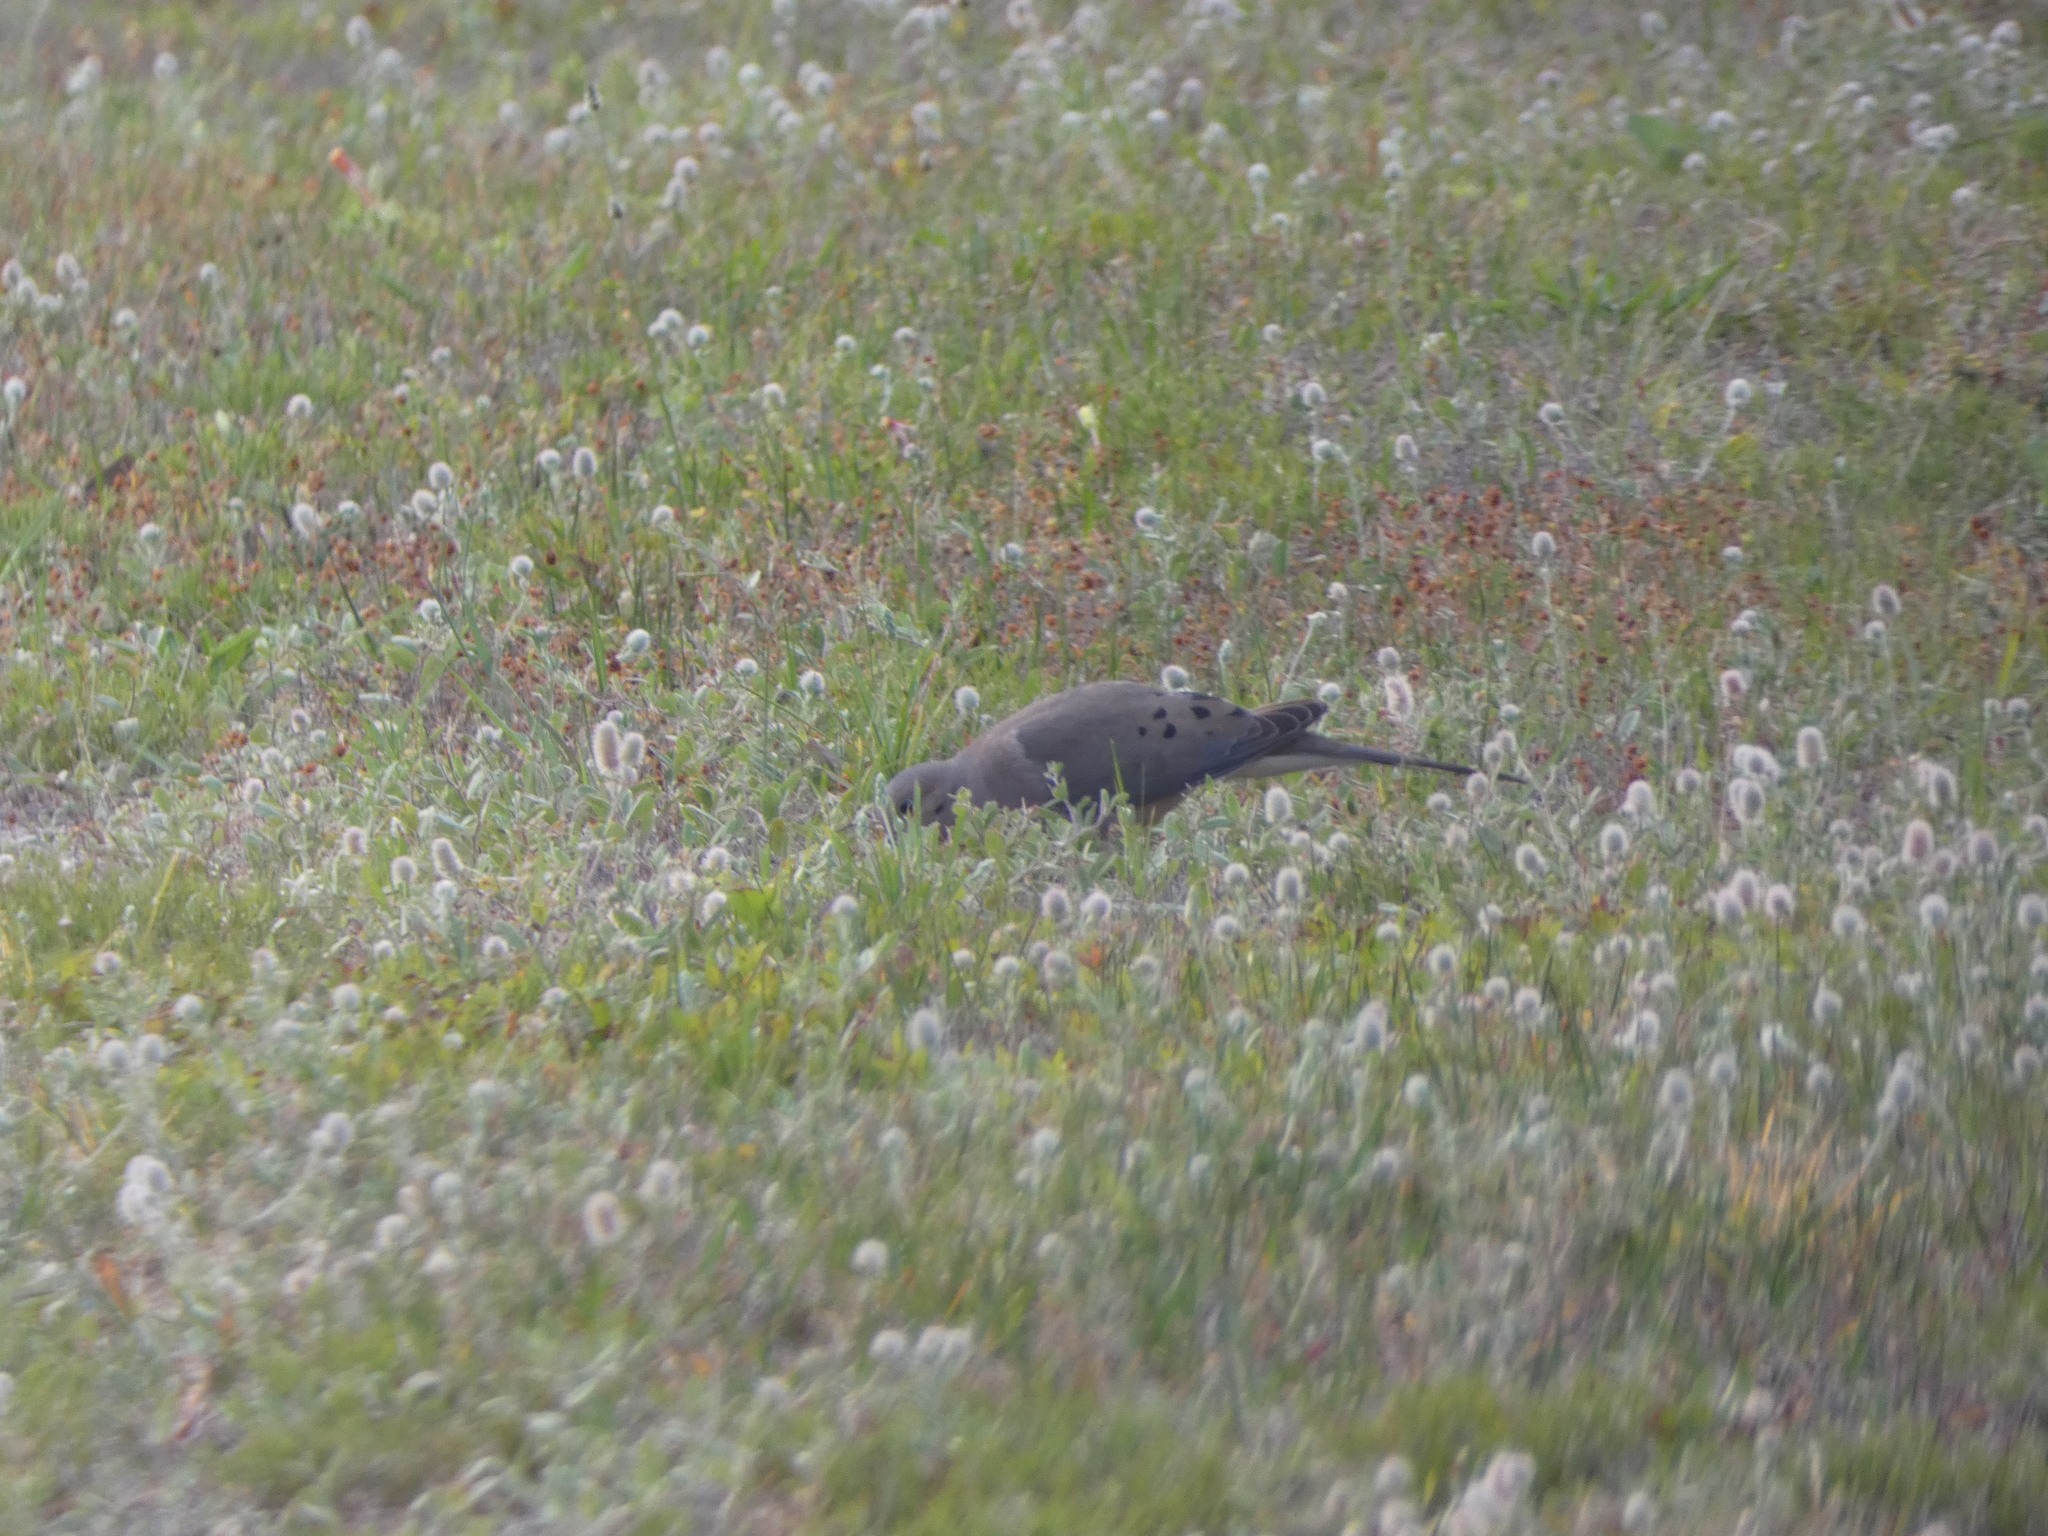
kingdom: Animalia
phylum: Chordata
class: Aves
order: Columbiformes
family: Columbidae
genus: Zenaida
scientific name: Zenaida macroura
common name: Mourning dove
